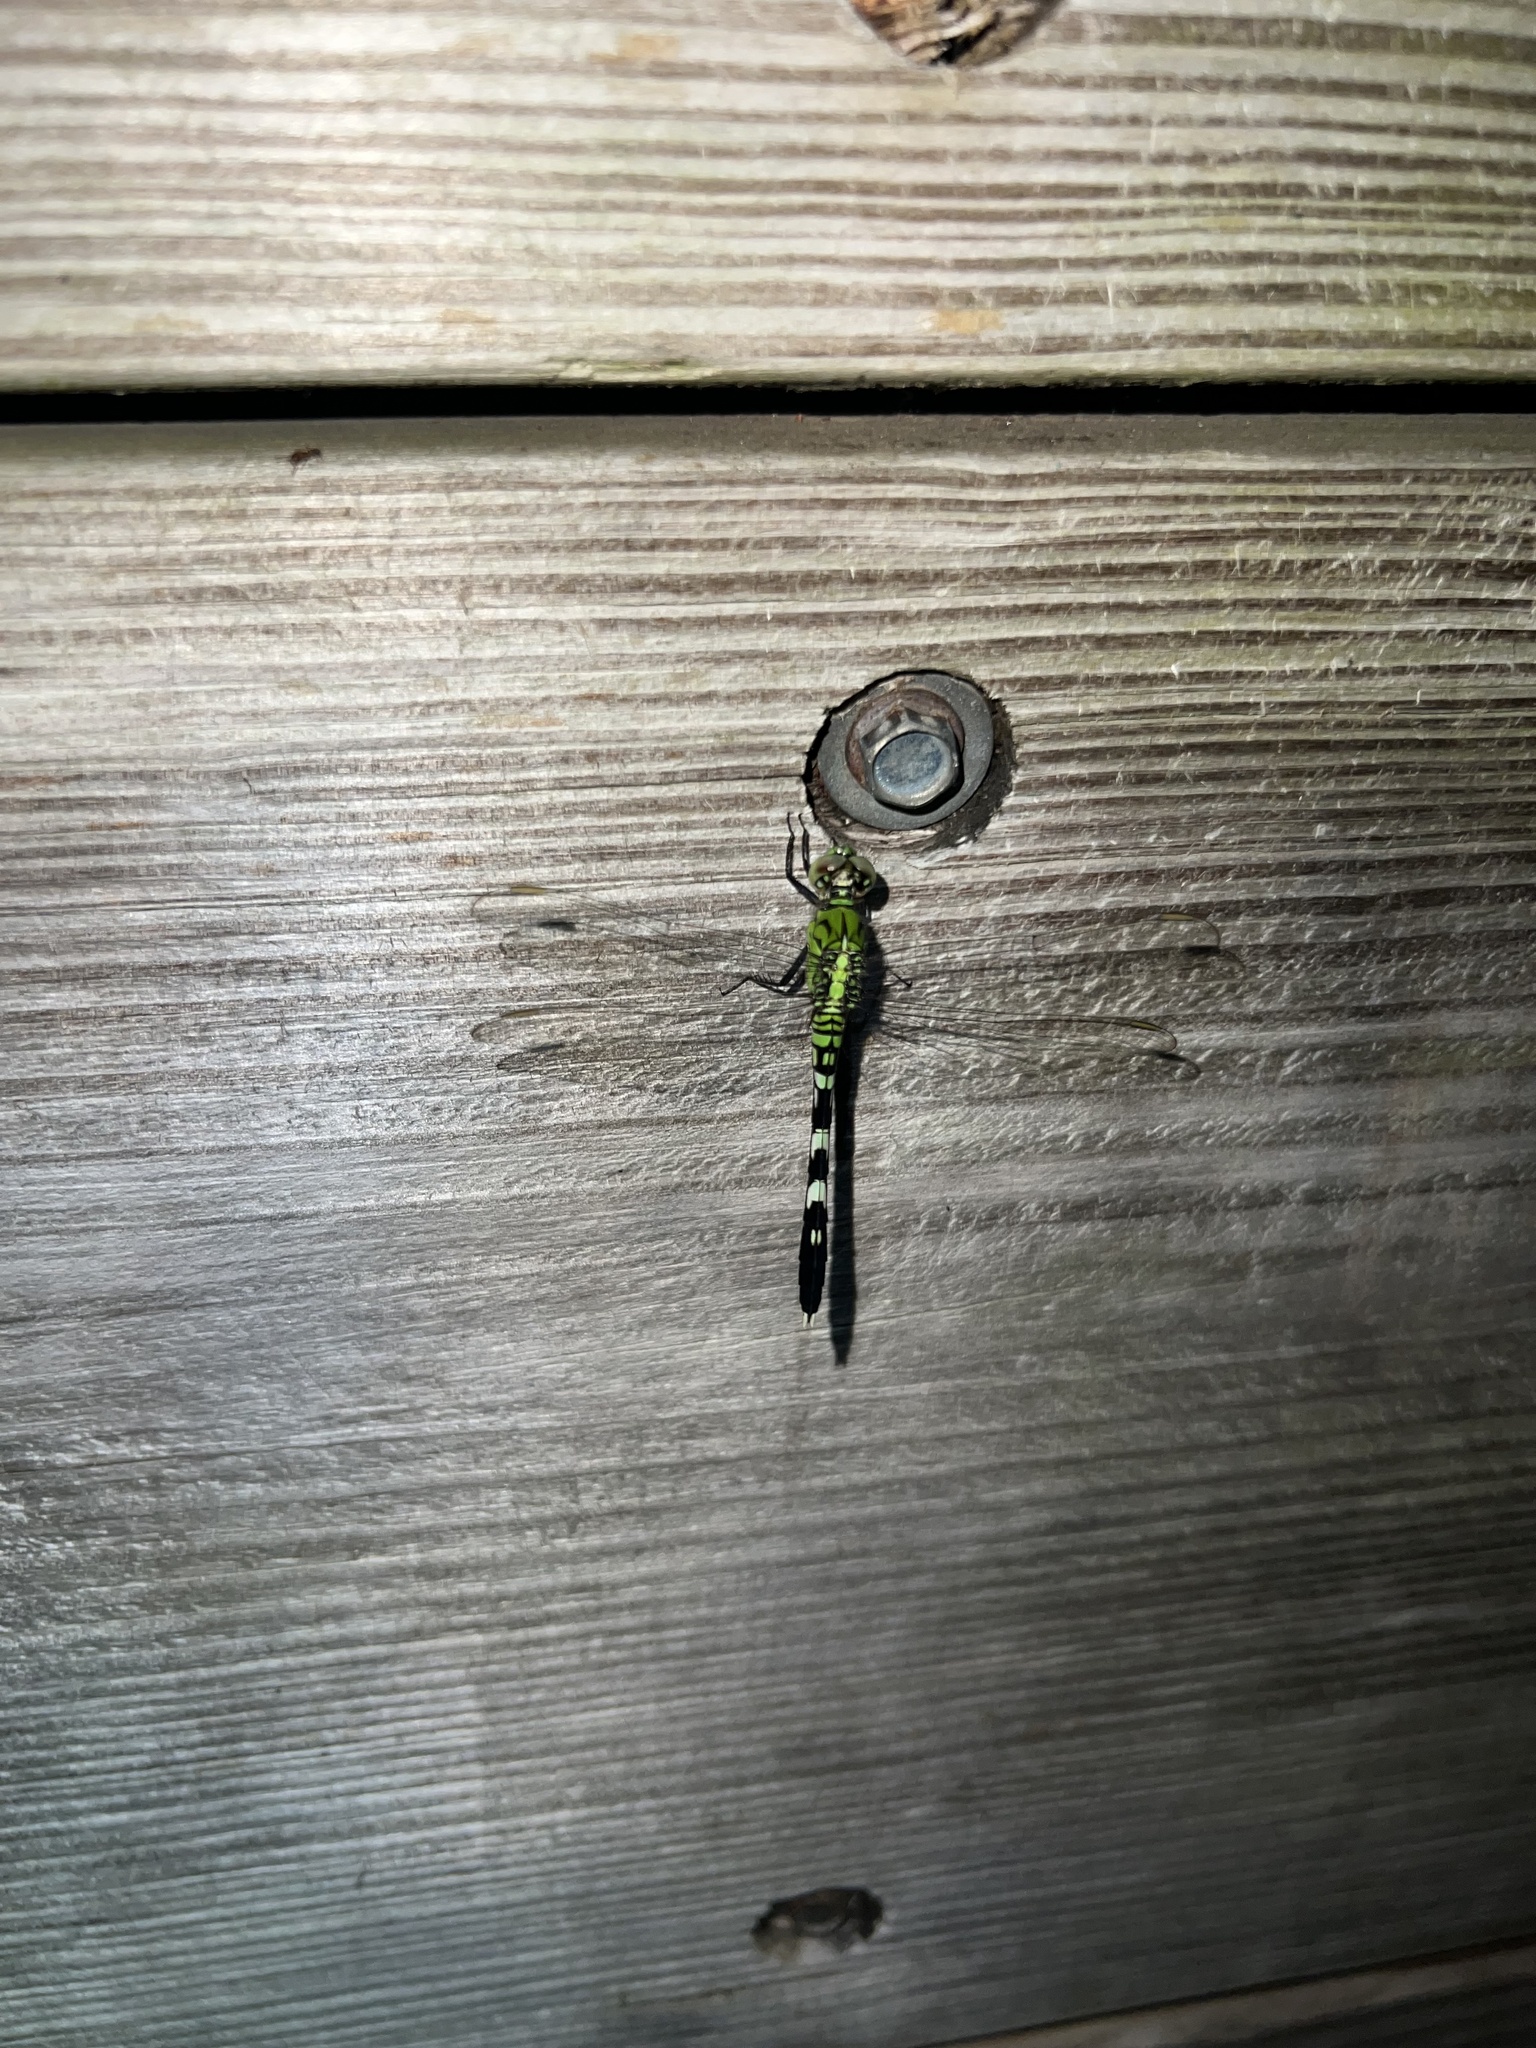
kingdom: Animalia
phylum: Arthropoda
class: Insecta
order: Odonata
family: Libellulidae
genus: Erythemis
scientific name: Erythemis simplicicollis
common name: Eastern pondhawk
